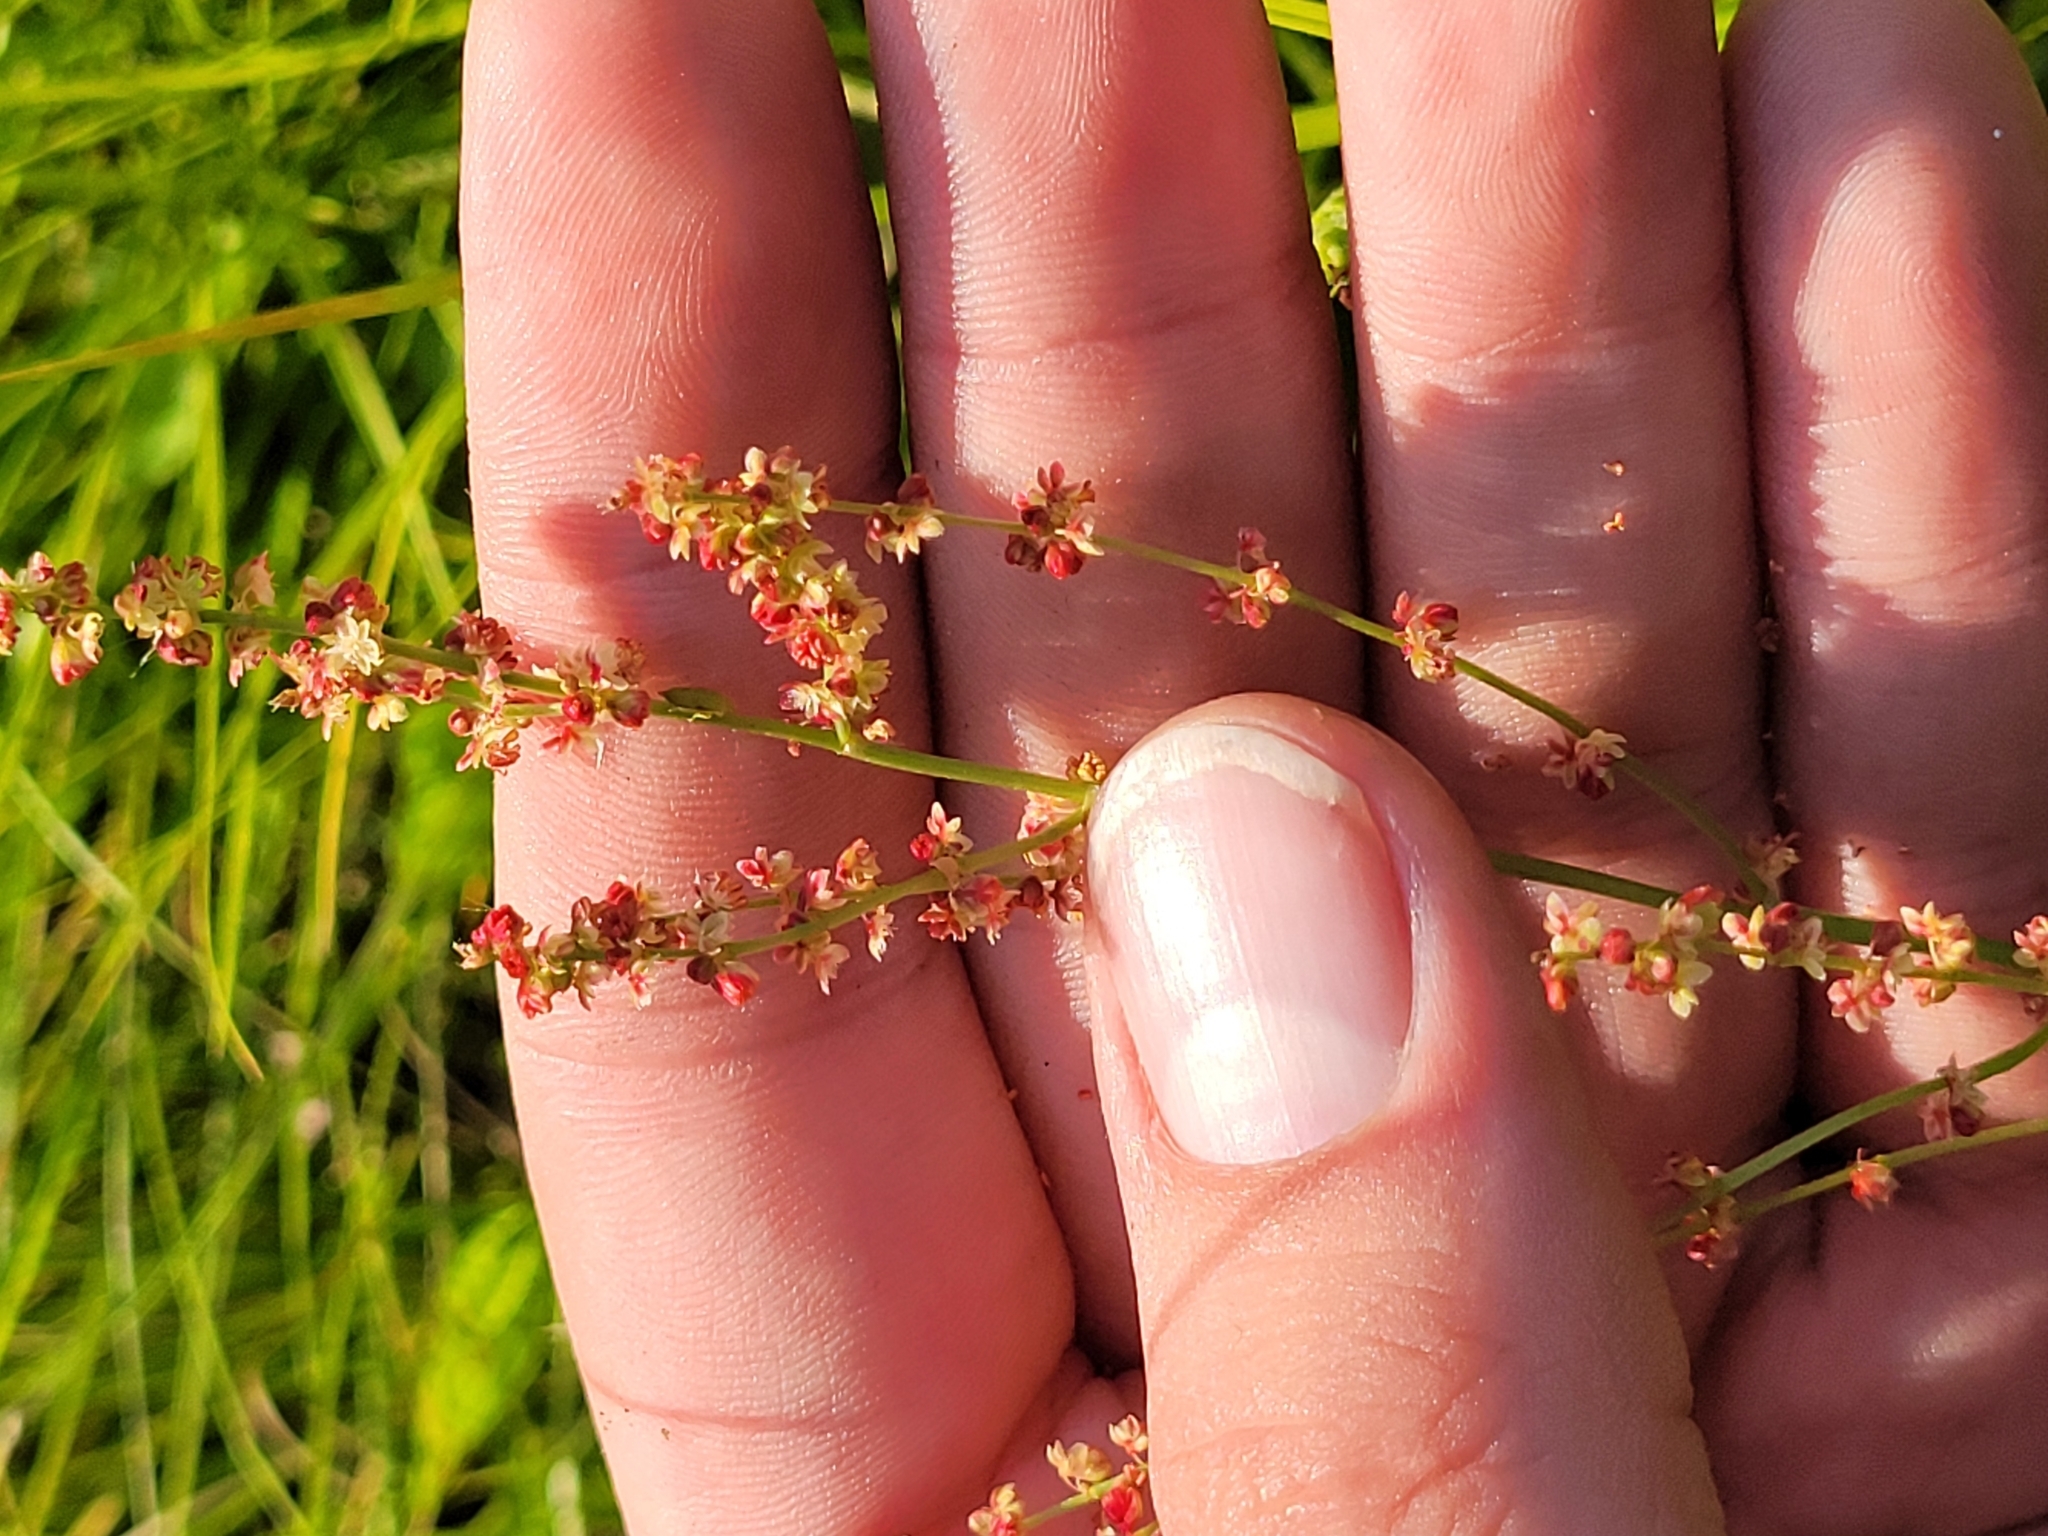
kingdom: Plantae
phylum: Tracheophyta
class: Magnoliopsida
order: Caryophyllales
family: Polygonaceae
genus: Rumex
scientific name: Rumex acetosella
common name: Common sheep sorrel
